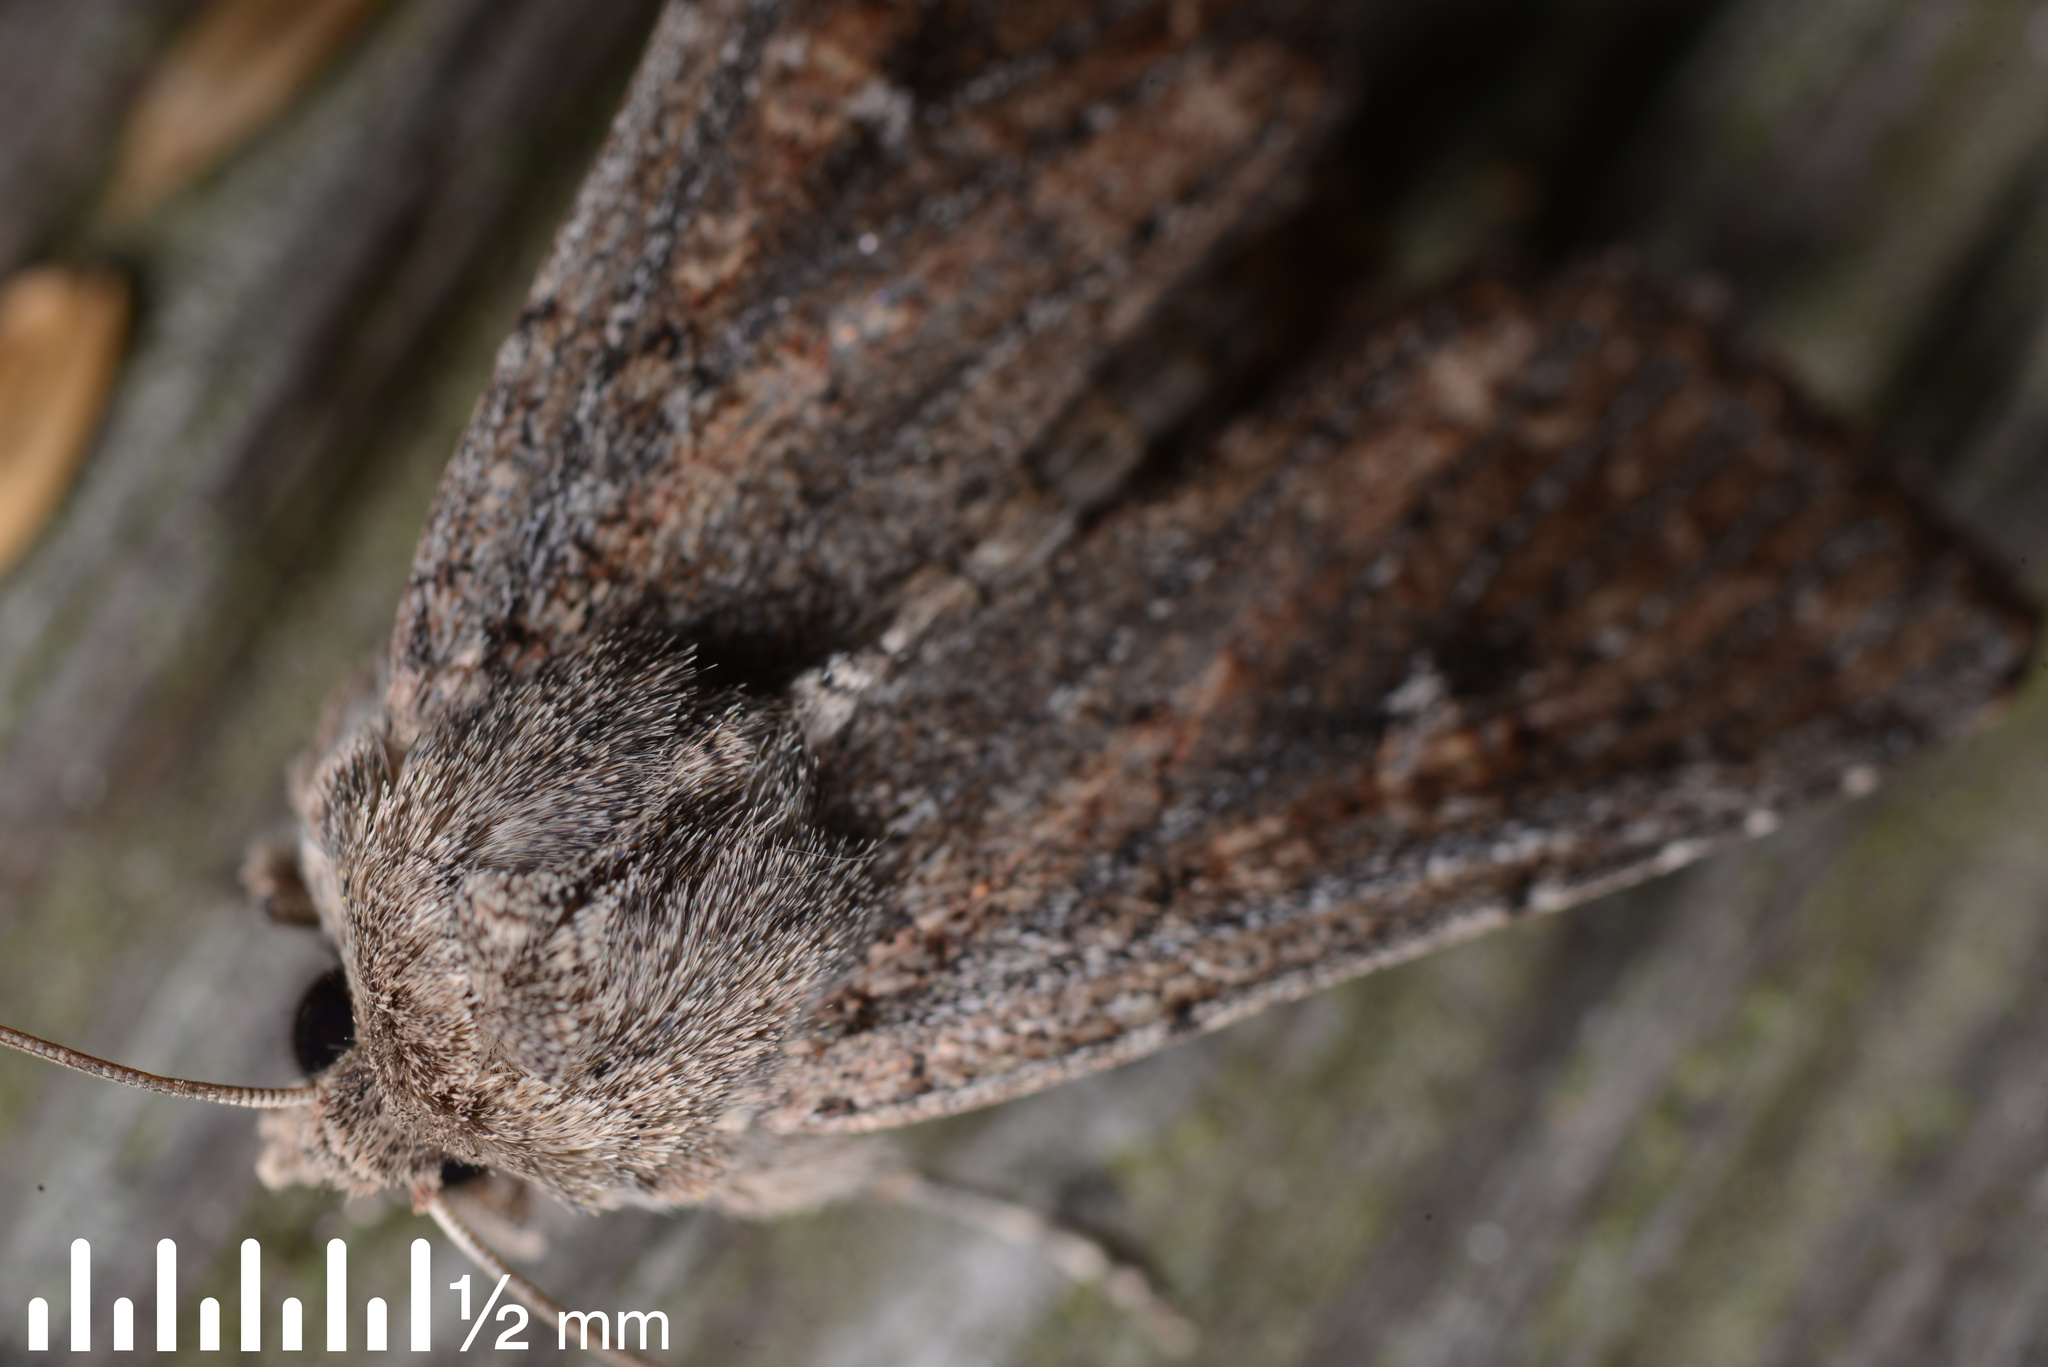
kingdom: Animalia
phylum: Arthropoda
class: Insecta
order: Lepidoptera
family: Noctuidae
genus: Ichneutica
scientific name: Ichneutica
